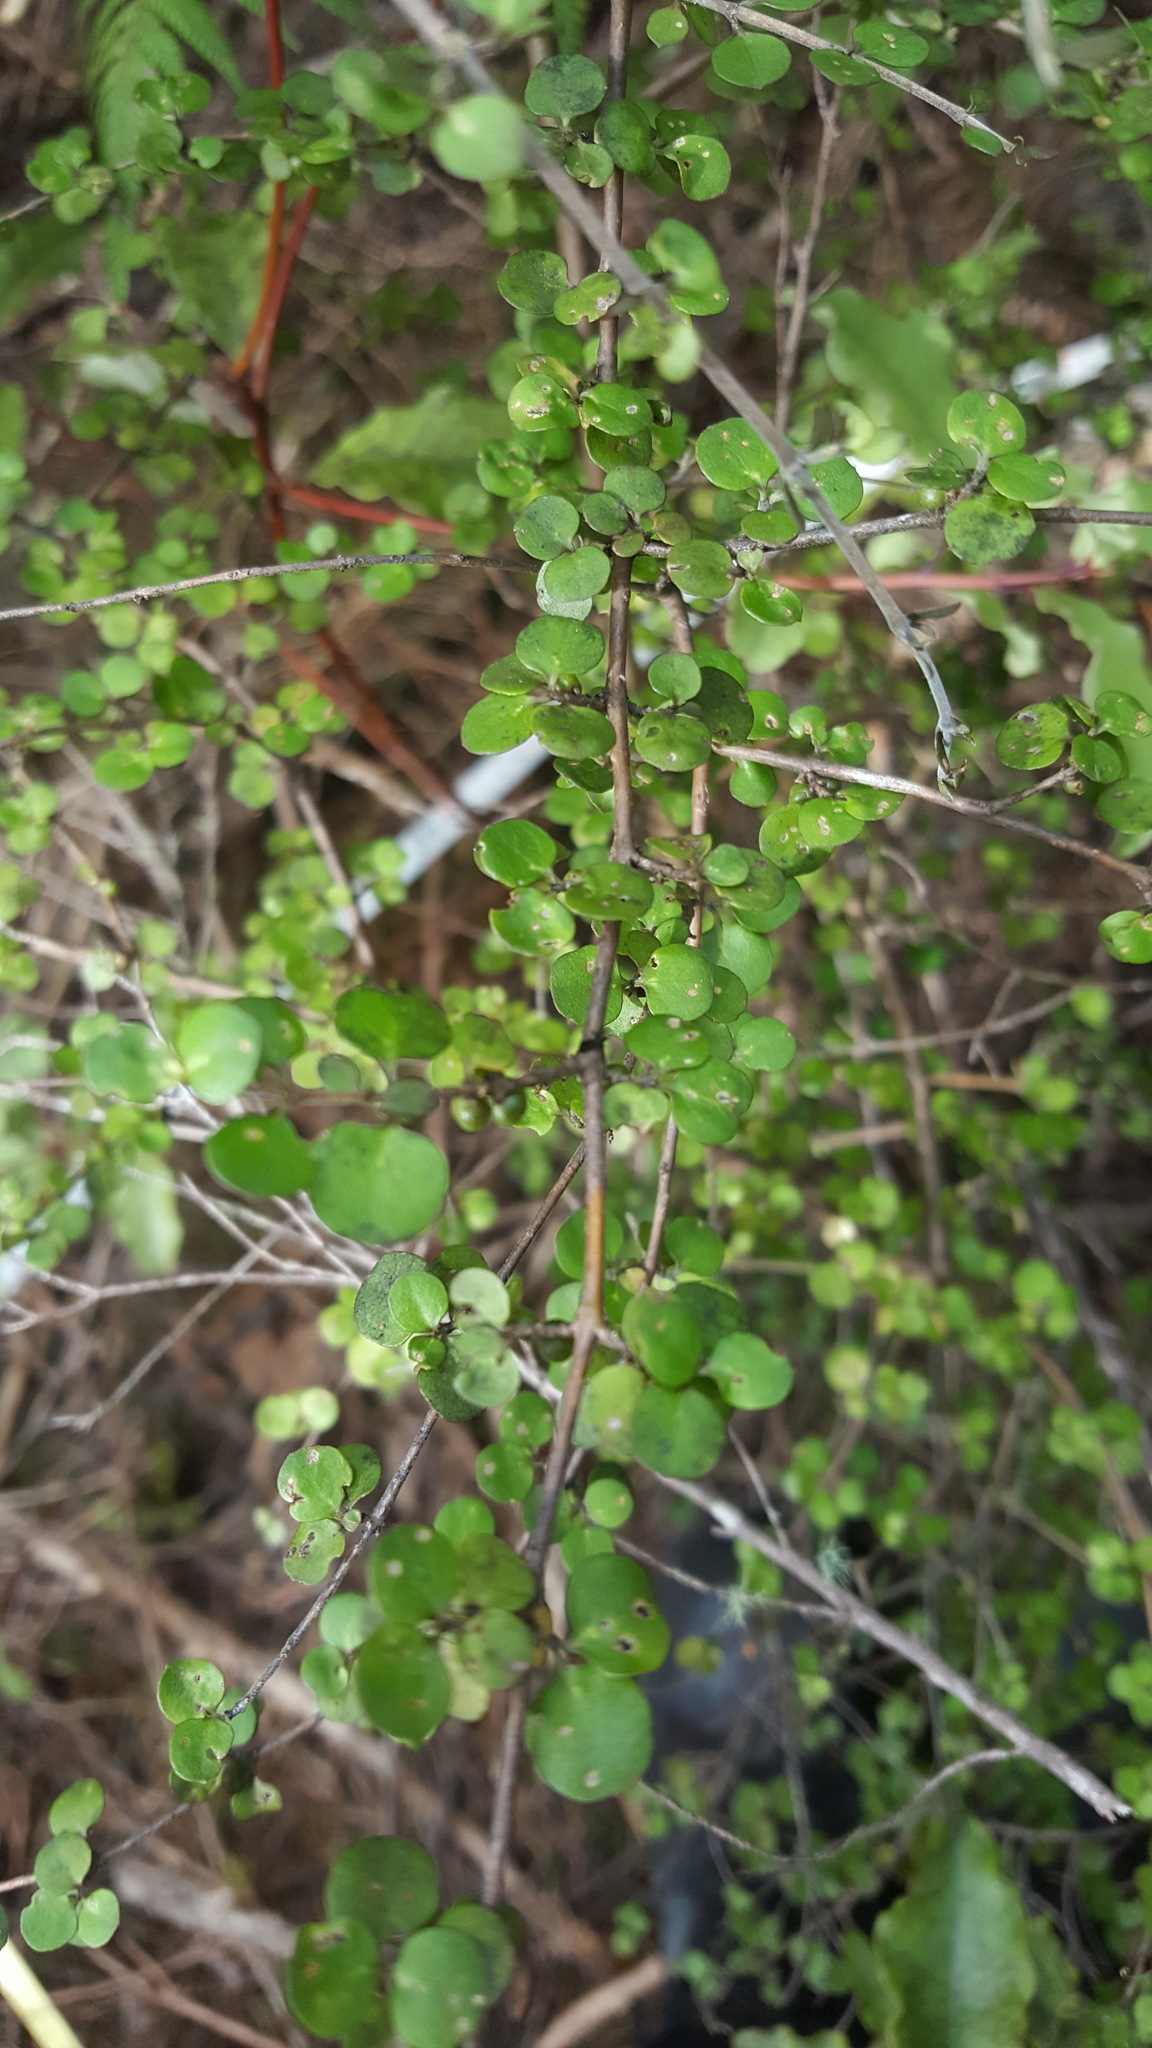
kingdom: Plantae
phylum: Tracheophyta
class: Magnoliopsida
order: Gentianales
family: Rubiaceae
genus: Coprosma
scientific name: Coprosma rhamnoides
